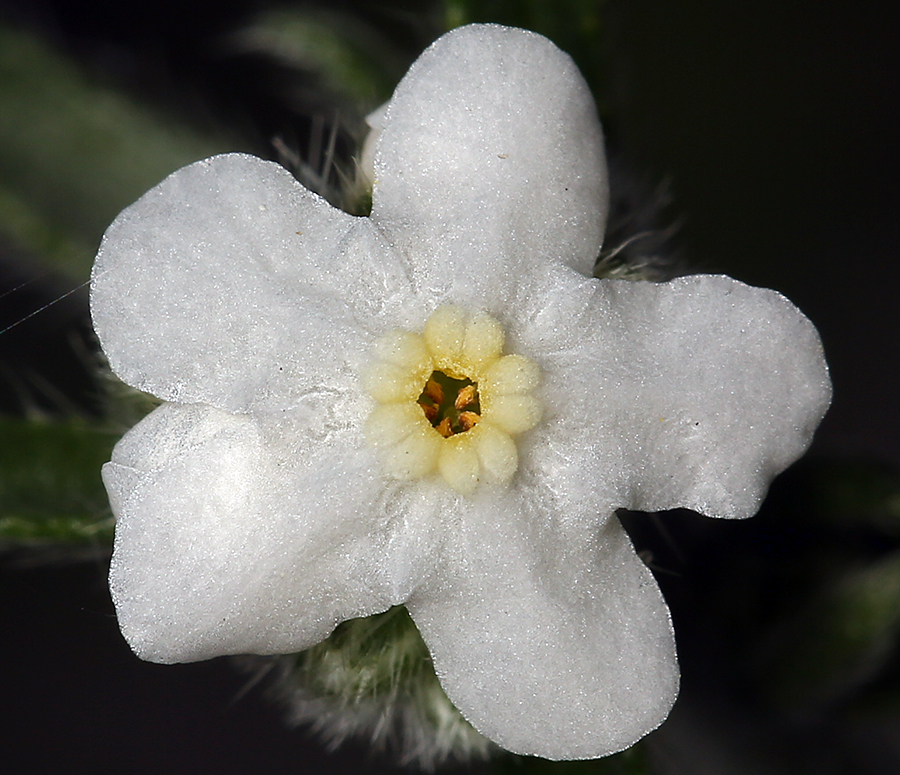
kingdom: Plantae
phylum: Tracheophyta
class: Magnoliopsida
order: Boraginales
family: Boraginaceae
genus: Cryptantha
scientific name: Cryptantha utahensis
